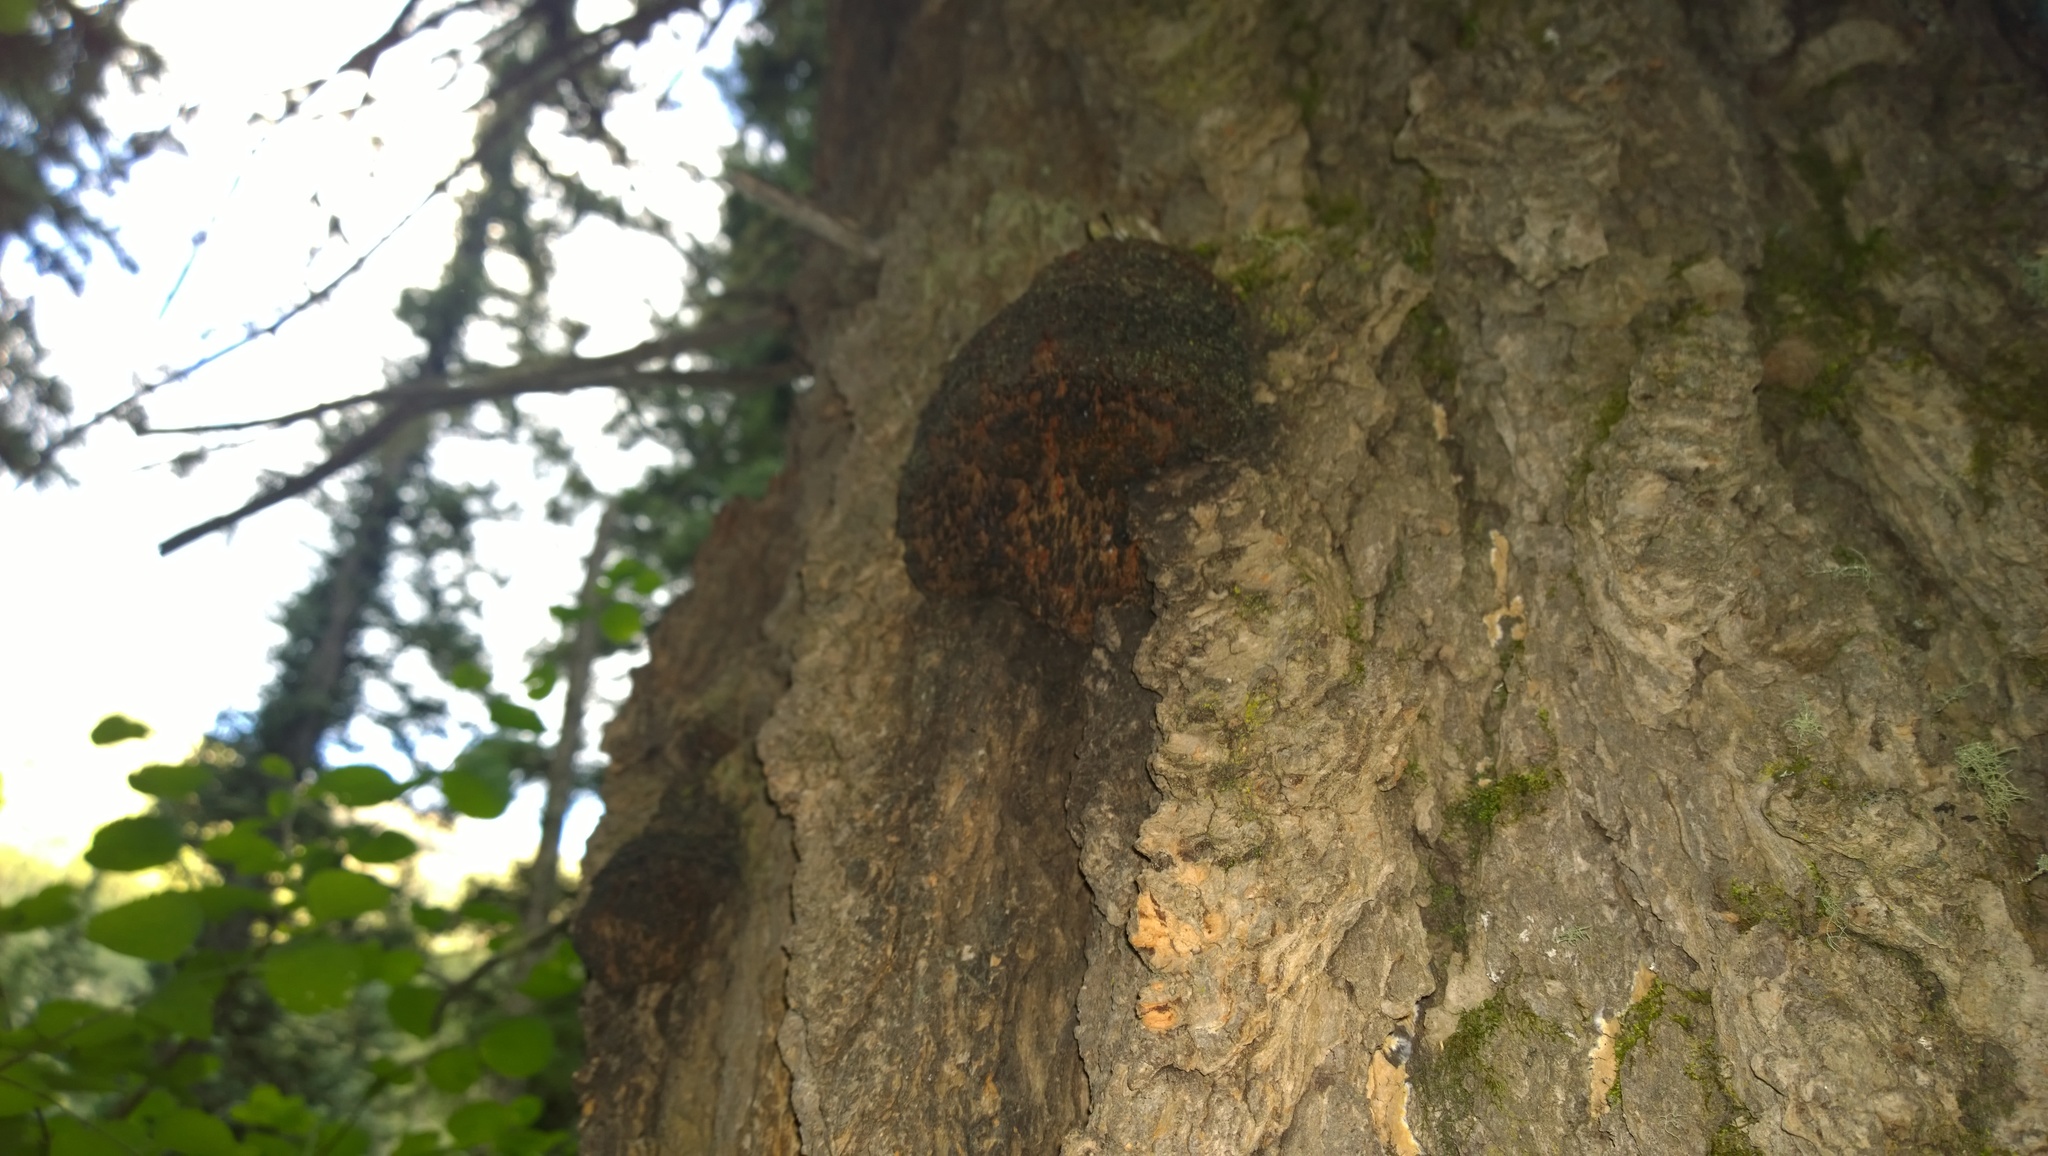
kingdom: Fungi
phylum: Basidiomycota
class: Agaricomycetes
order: Russulales
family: Echinodontiaceae
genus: Echinodontium
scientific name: Echinodontium tinctorium
